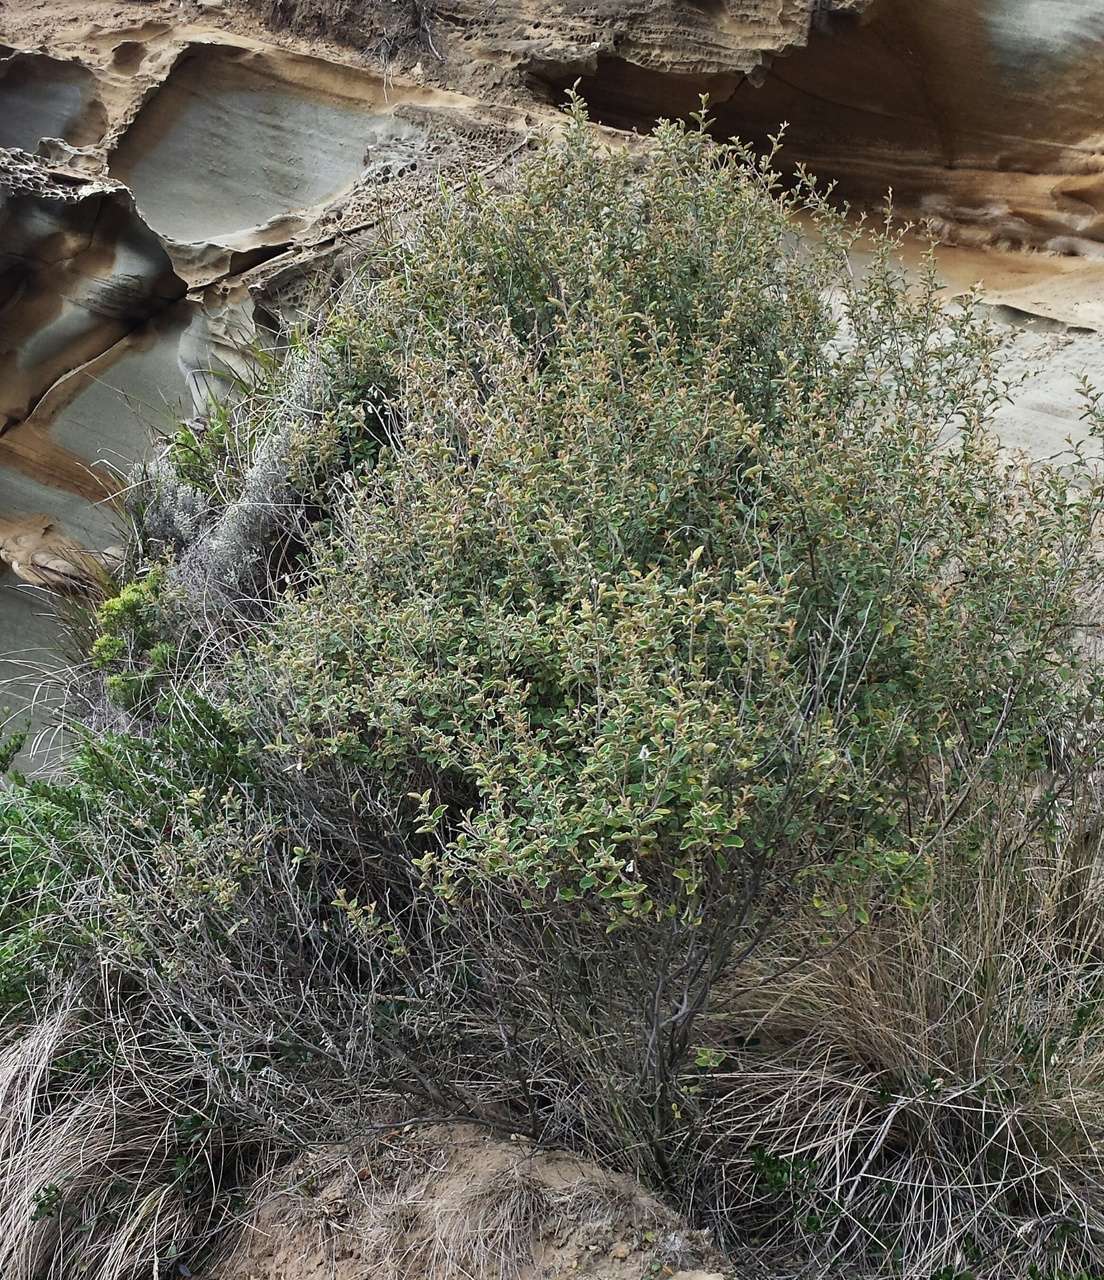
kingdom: Plantae
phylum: Tracheophyta
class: Magnoliopsida
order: Rosales
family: Rhamnaceae
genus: Pomaderris
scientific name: Pomaderris paniculosa
